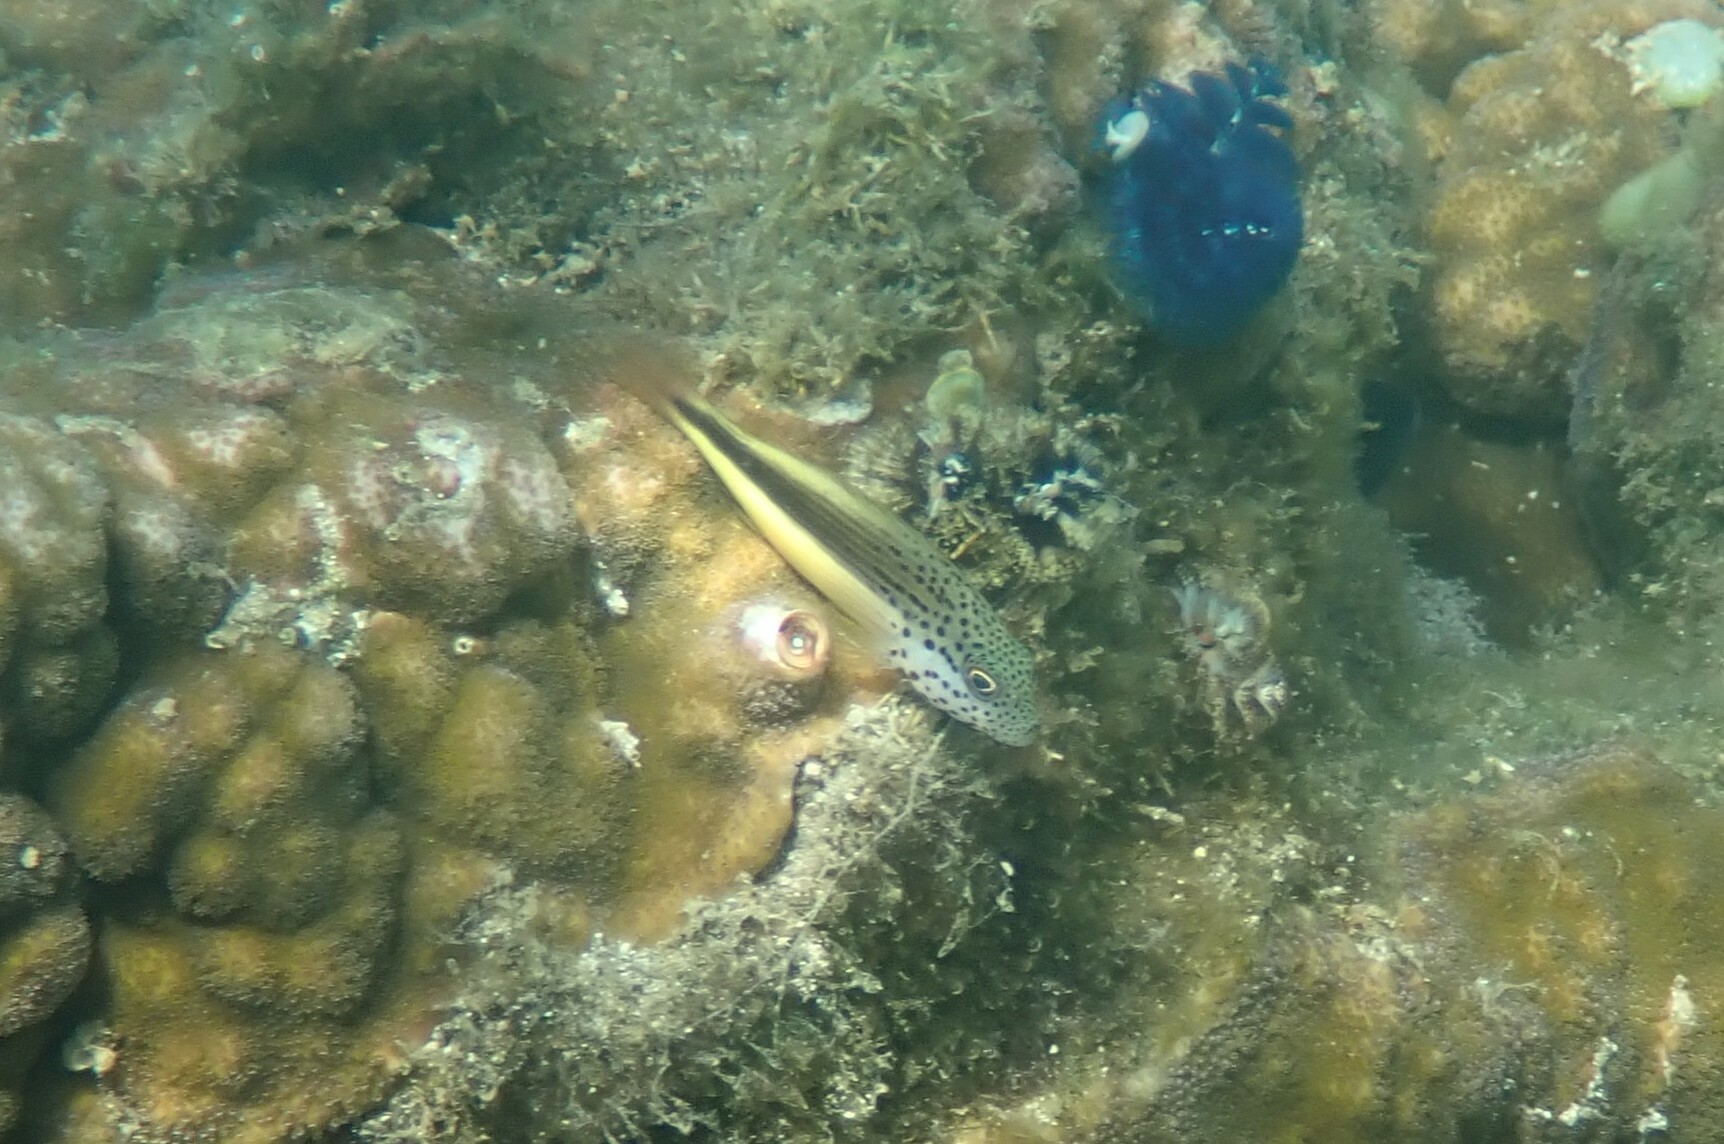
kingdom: Animalia
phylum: Chordata
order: Perciformes
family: Cirrhitidae
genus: Paracirrhites
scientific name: Paracirrhites forsteri
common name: Freckled hawkfish
